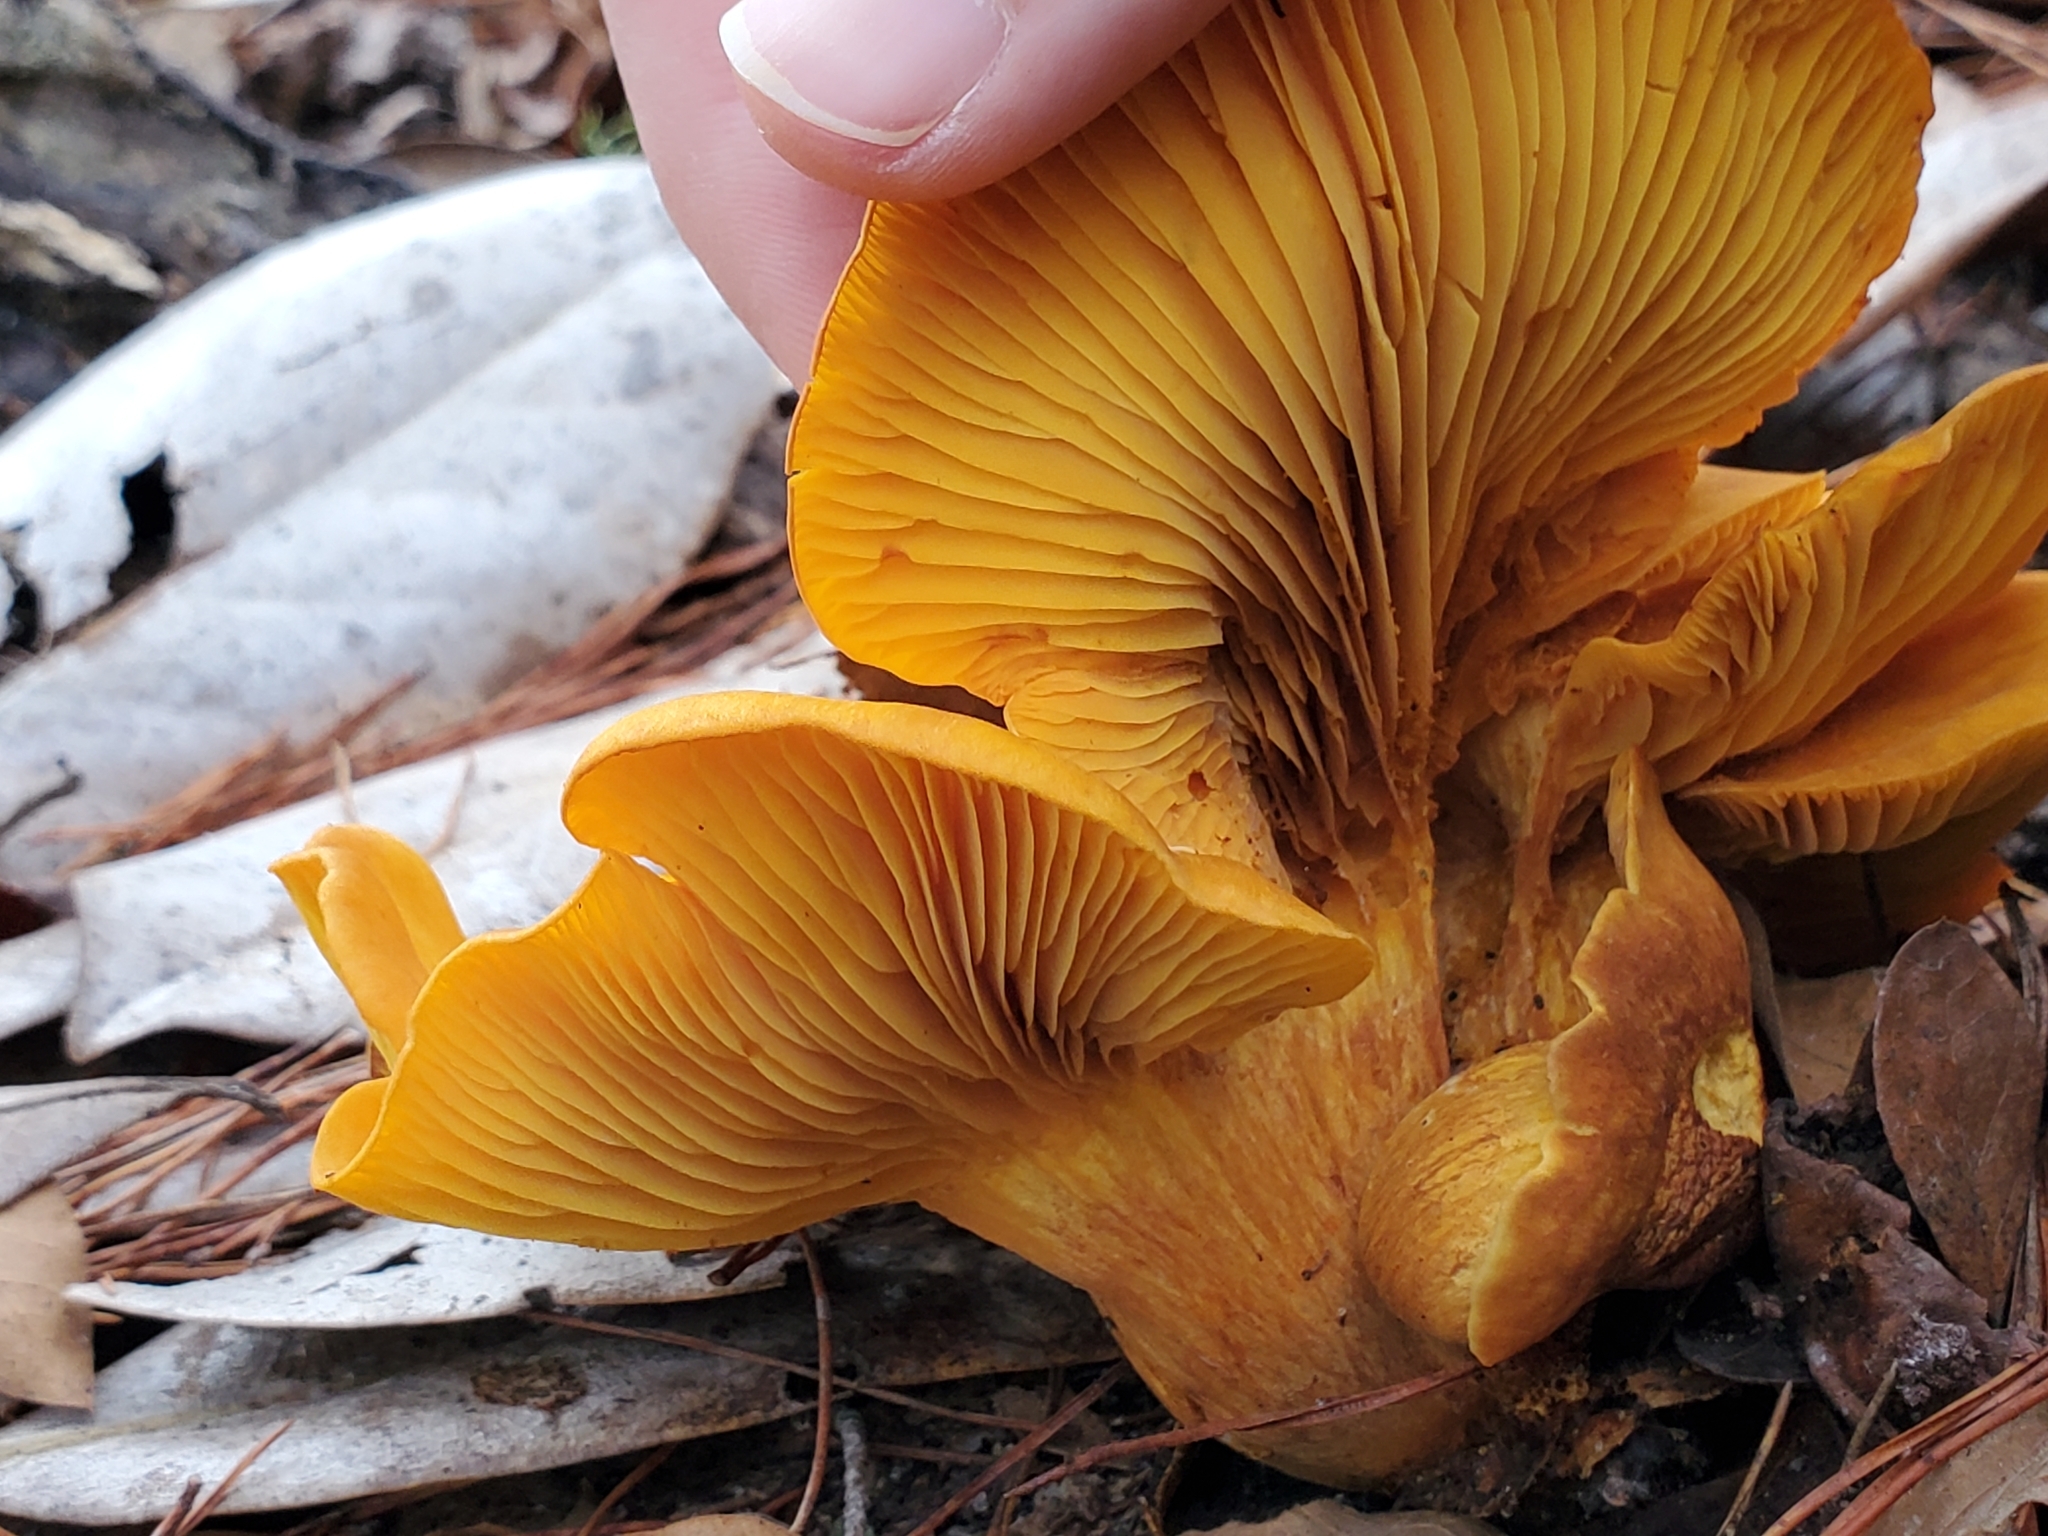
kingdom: Fungi
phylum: Basidiomycota
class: Agaricomycetes
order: Agaricales
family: Omphalotaceae
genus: Omphalotus
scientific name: Omphalotus subilludens
